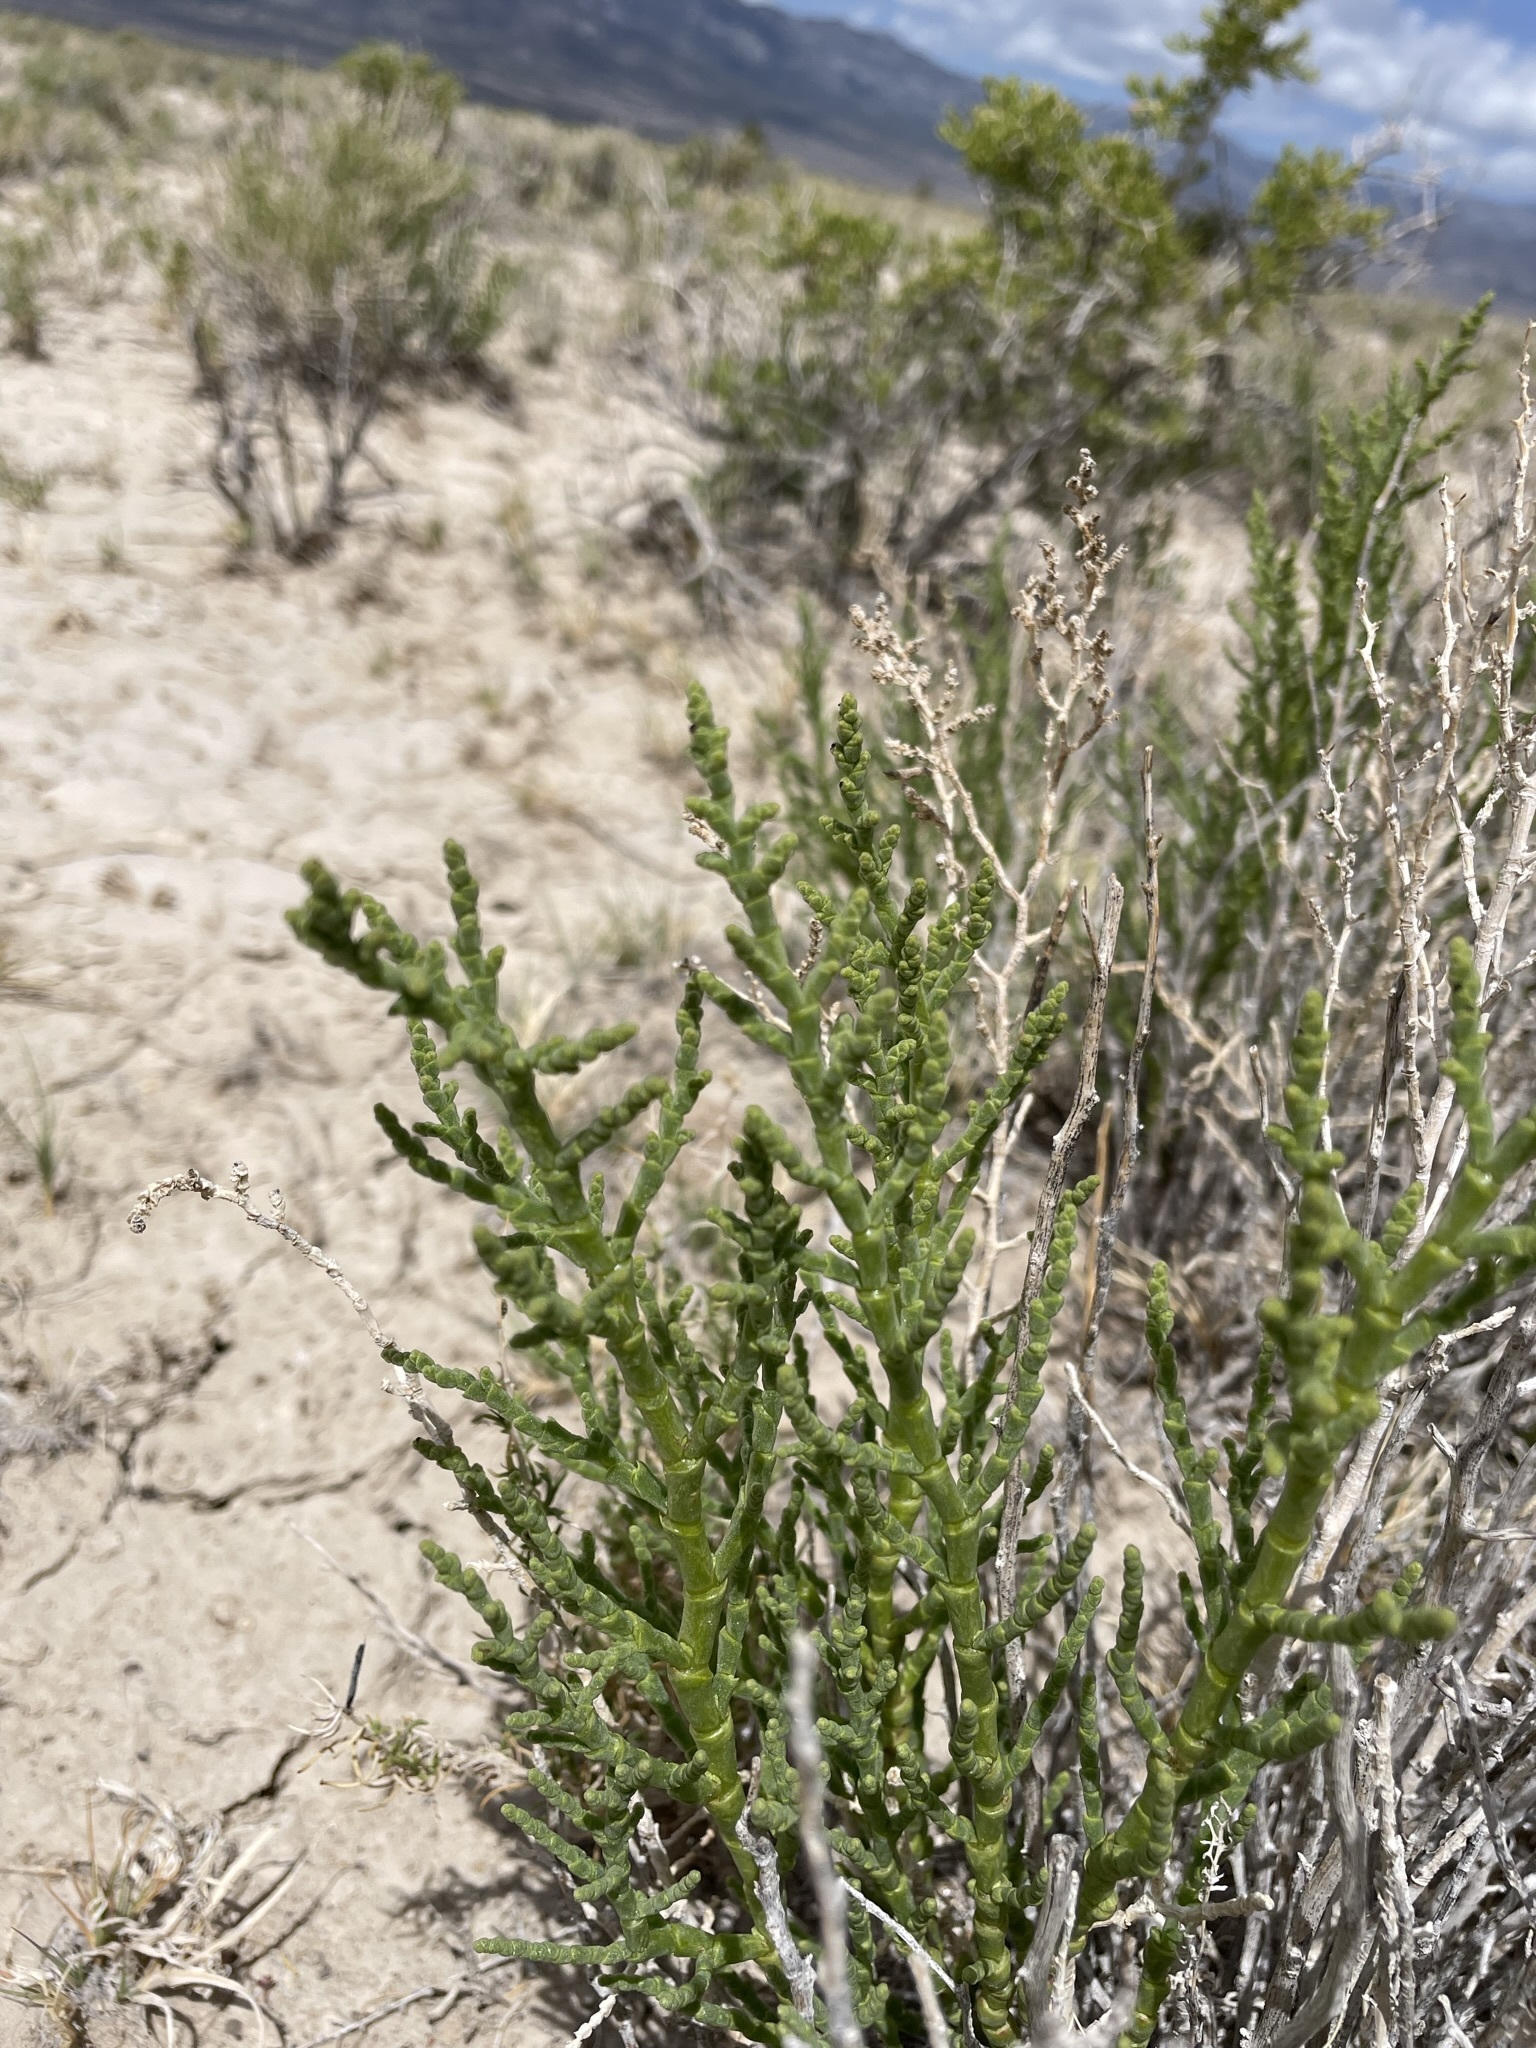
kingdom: Plantae
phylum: Tracheophyta
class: Magnoliopsida
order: Caryophyllales
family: Amaranthaceae
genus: Allenrolfea
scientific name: Allenrolfea occidentalis
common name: Iodine-bush
